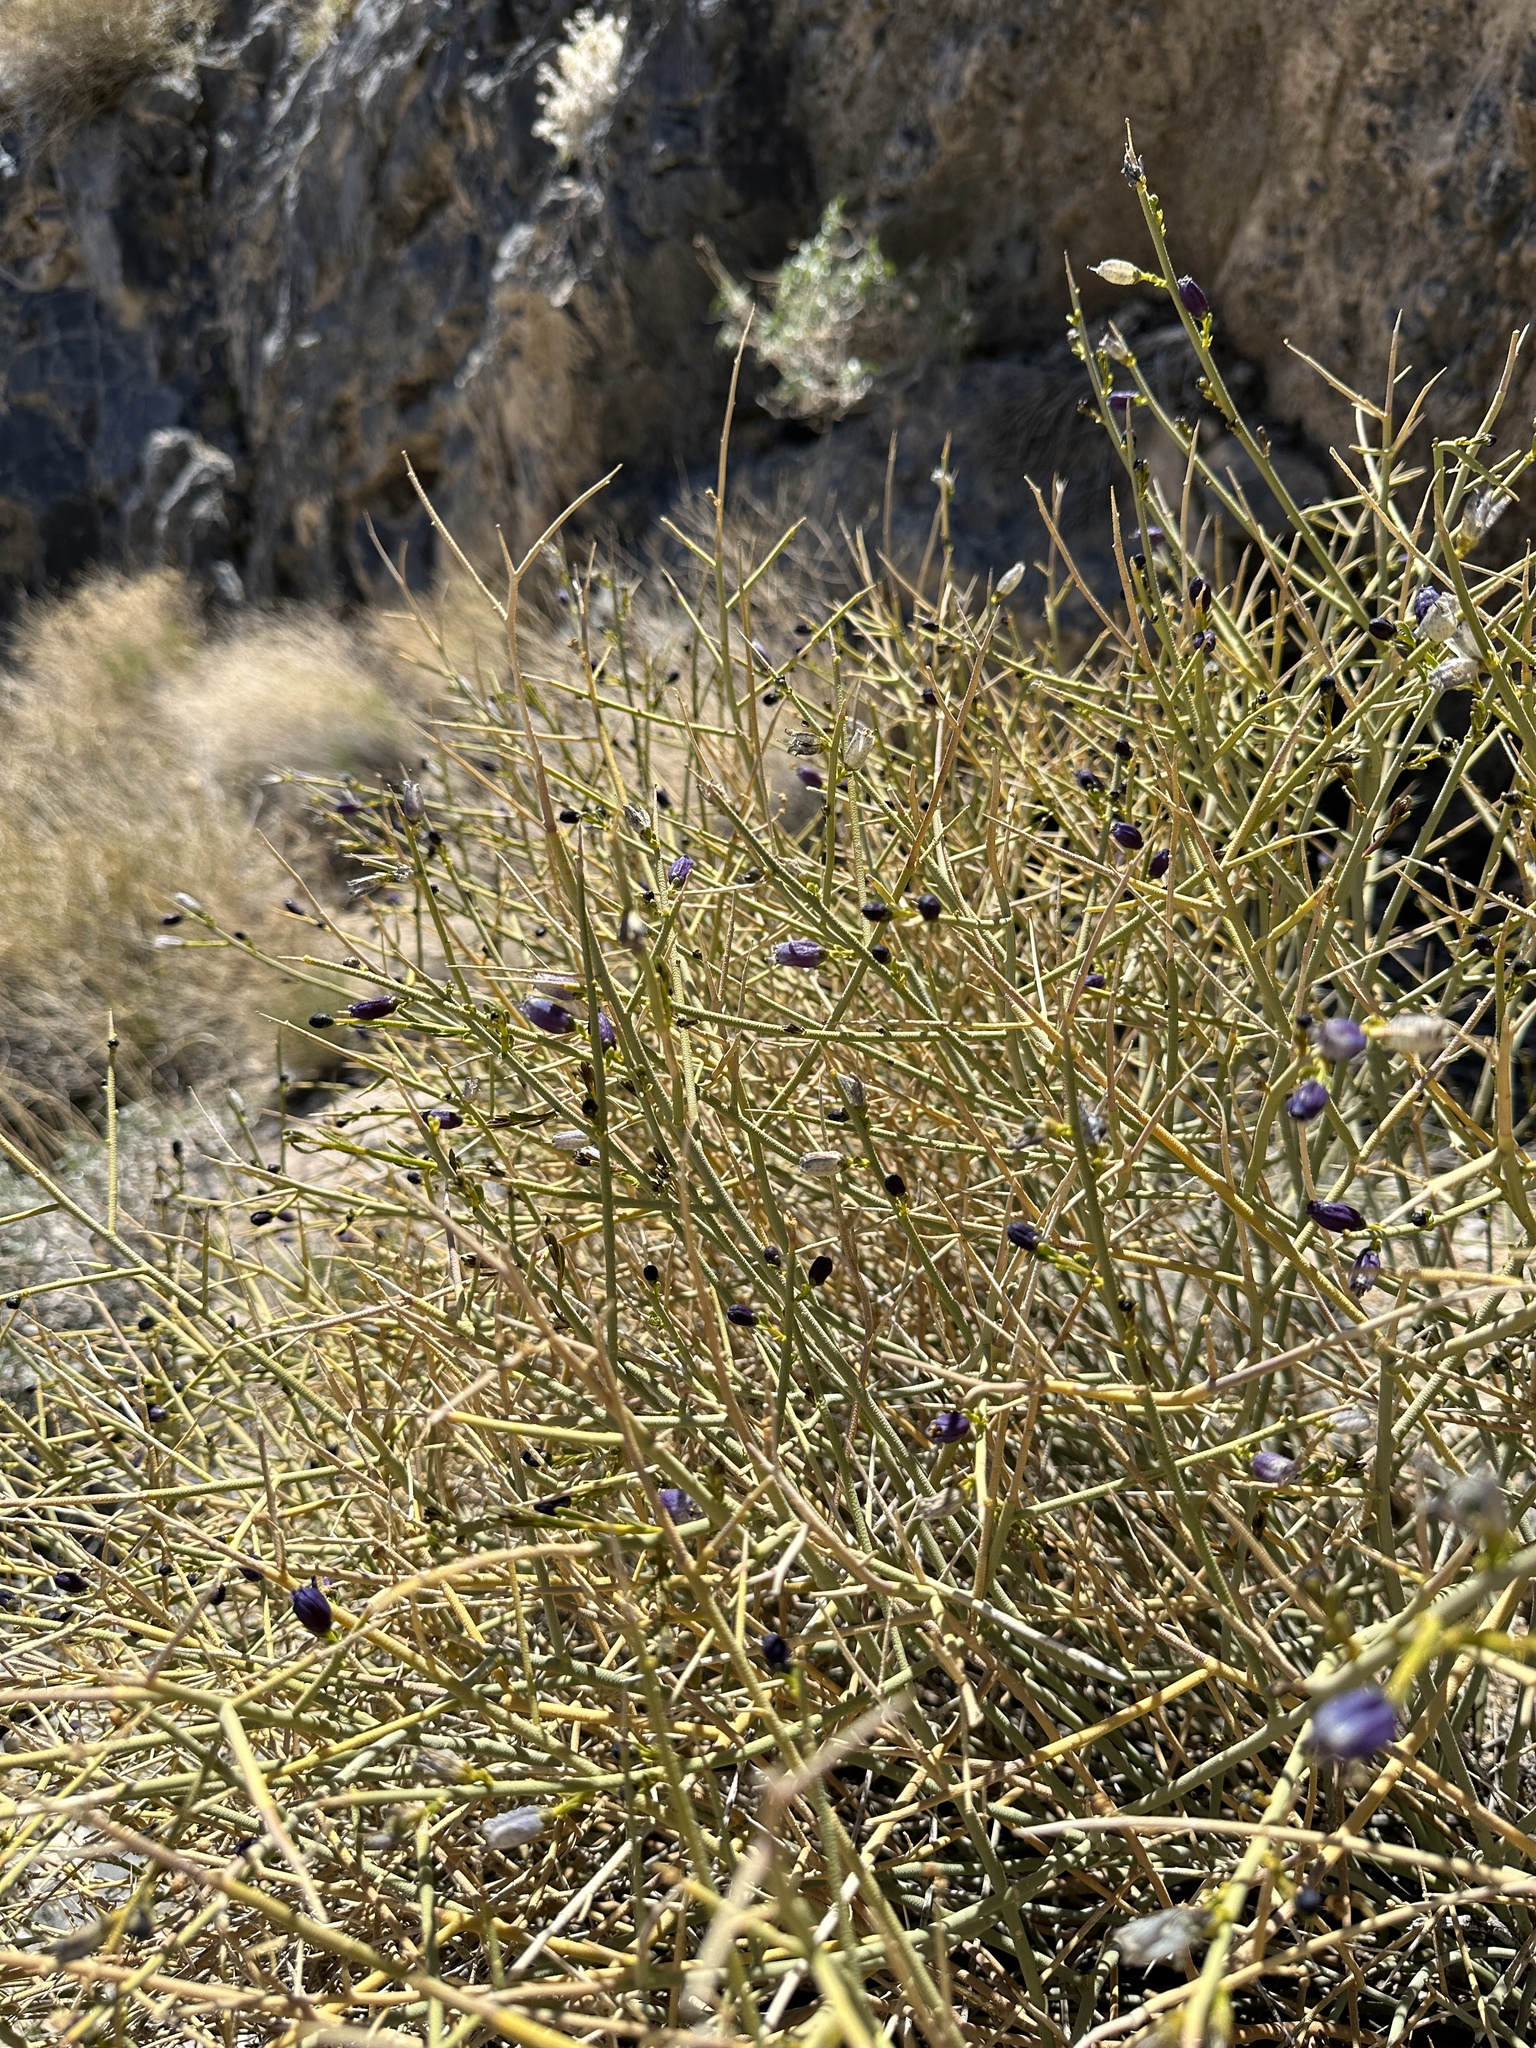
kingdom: Plantae
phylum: Tracheophyta
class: Magnoliopsida
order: Sapindales
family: Rutaceae
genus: Thamnosma
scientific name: Thamnosma montana
